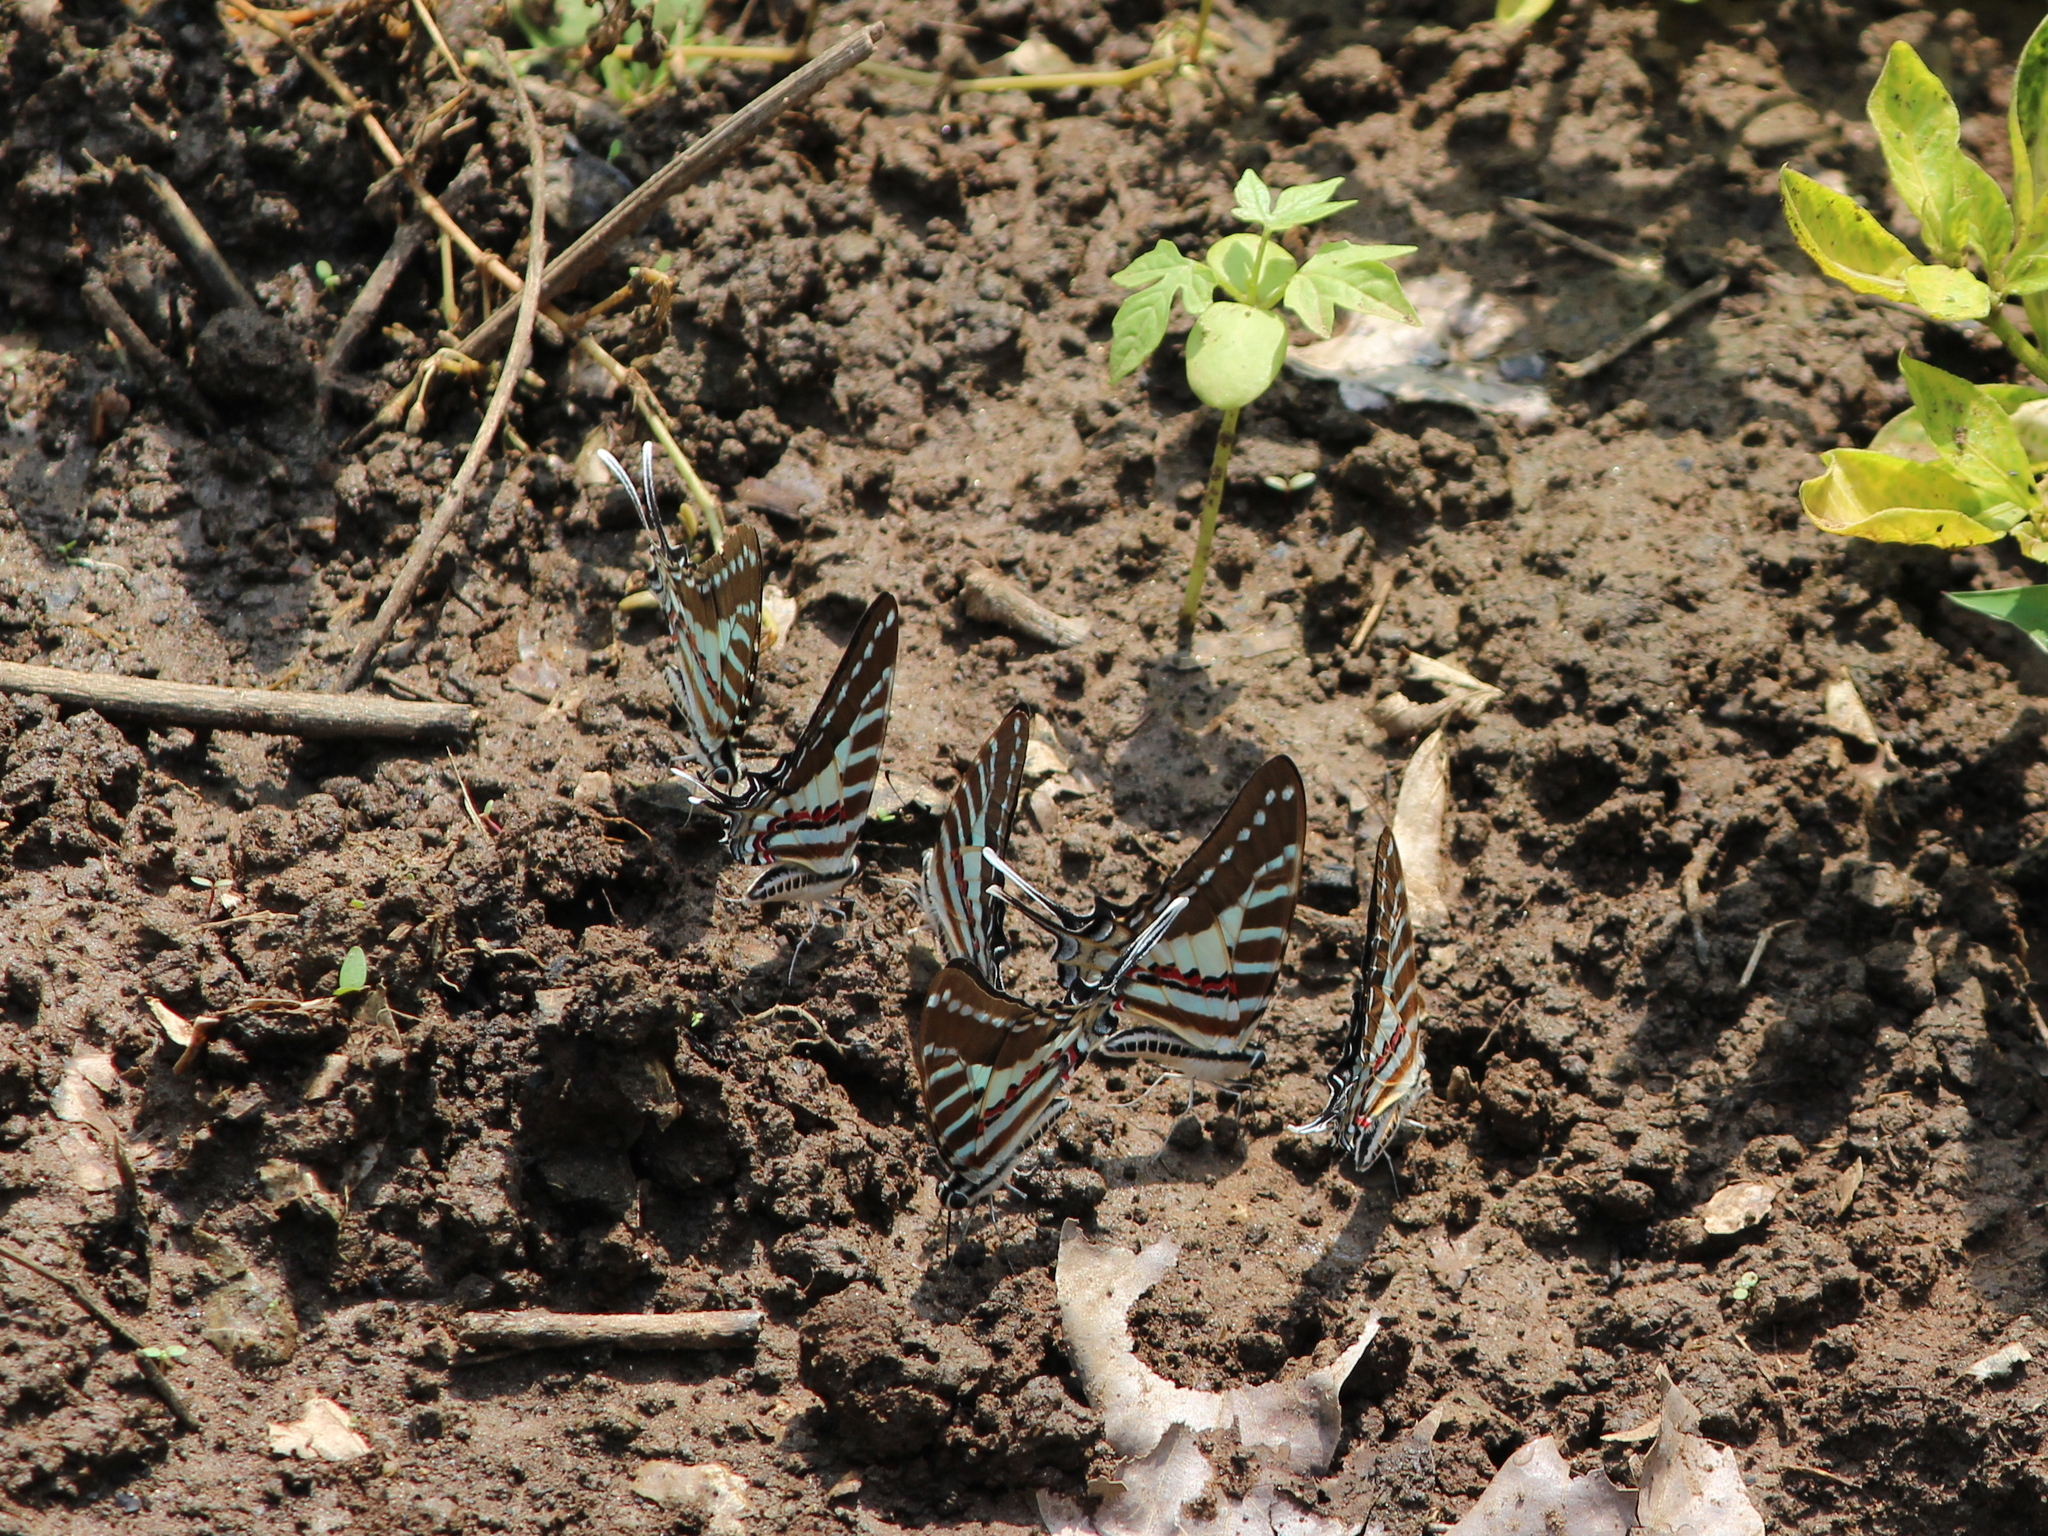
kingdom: Animalia
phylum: Arthropoda
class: Insecta
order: Lepidoptera
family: Papilionidae
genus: Graphium
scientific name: Graphium nomius
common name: Spot swordtail
